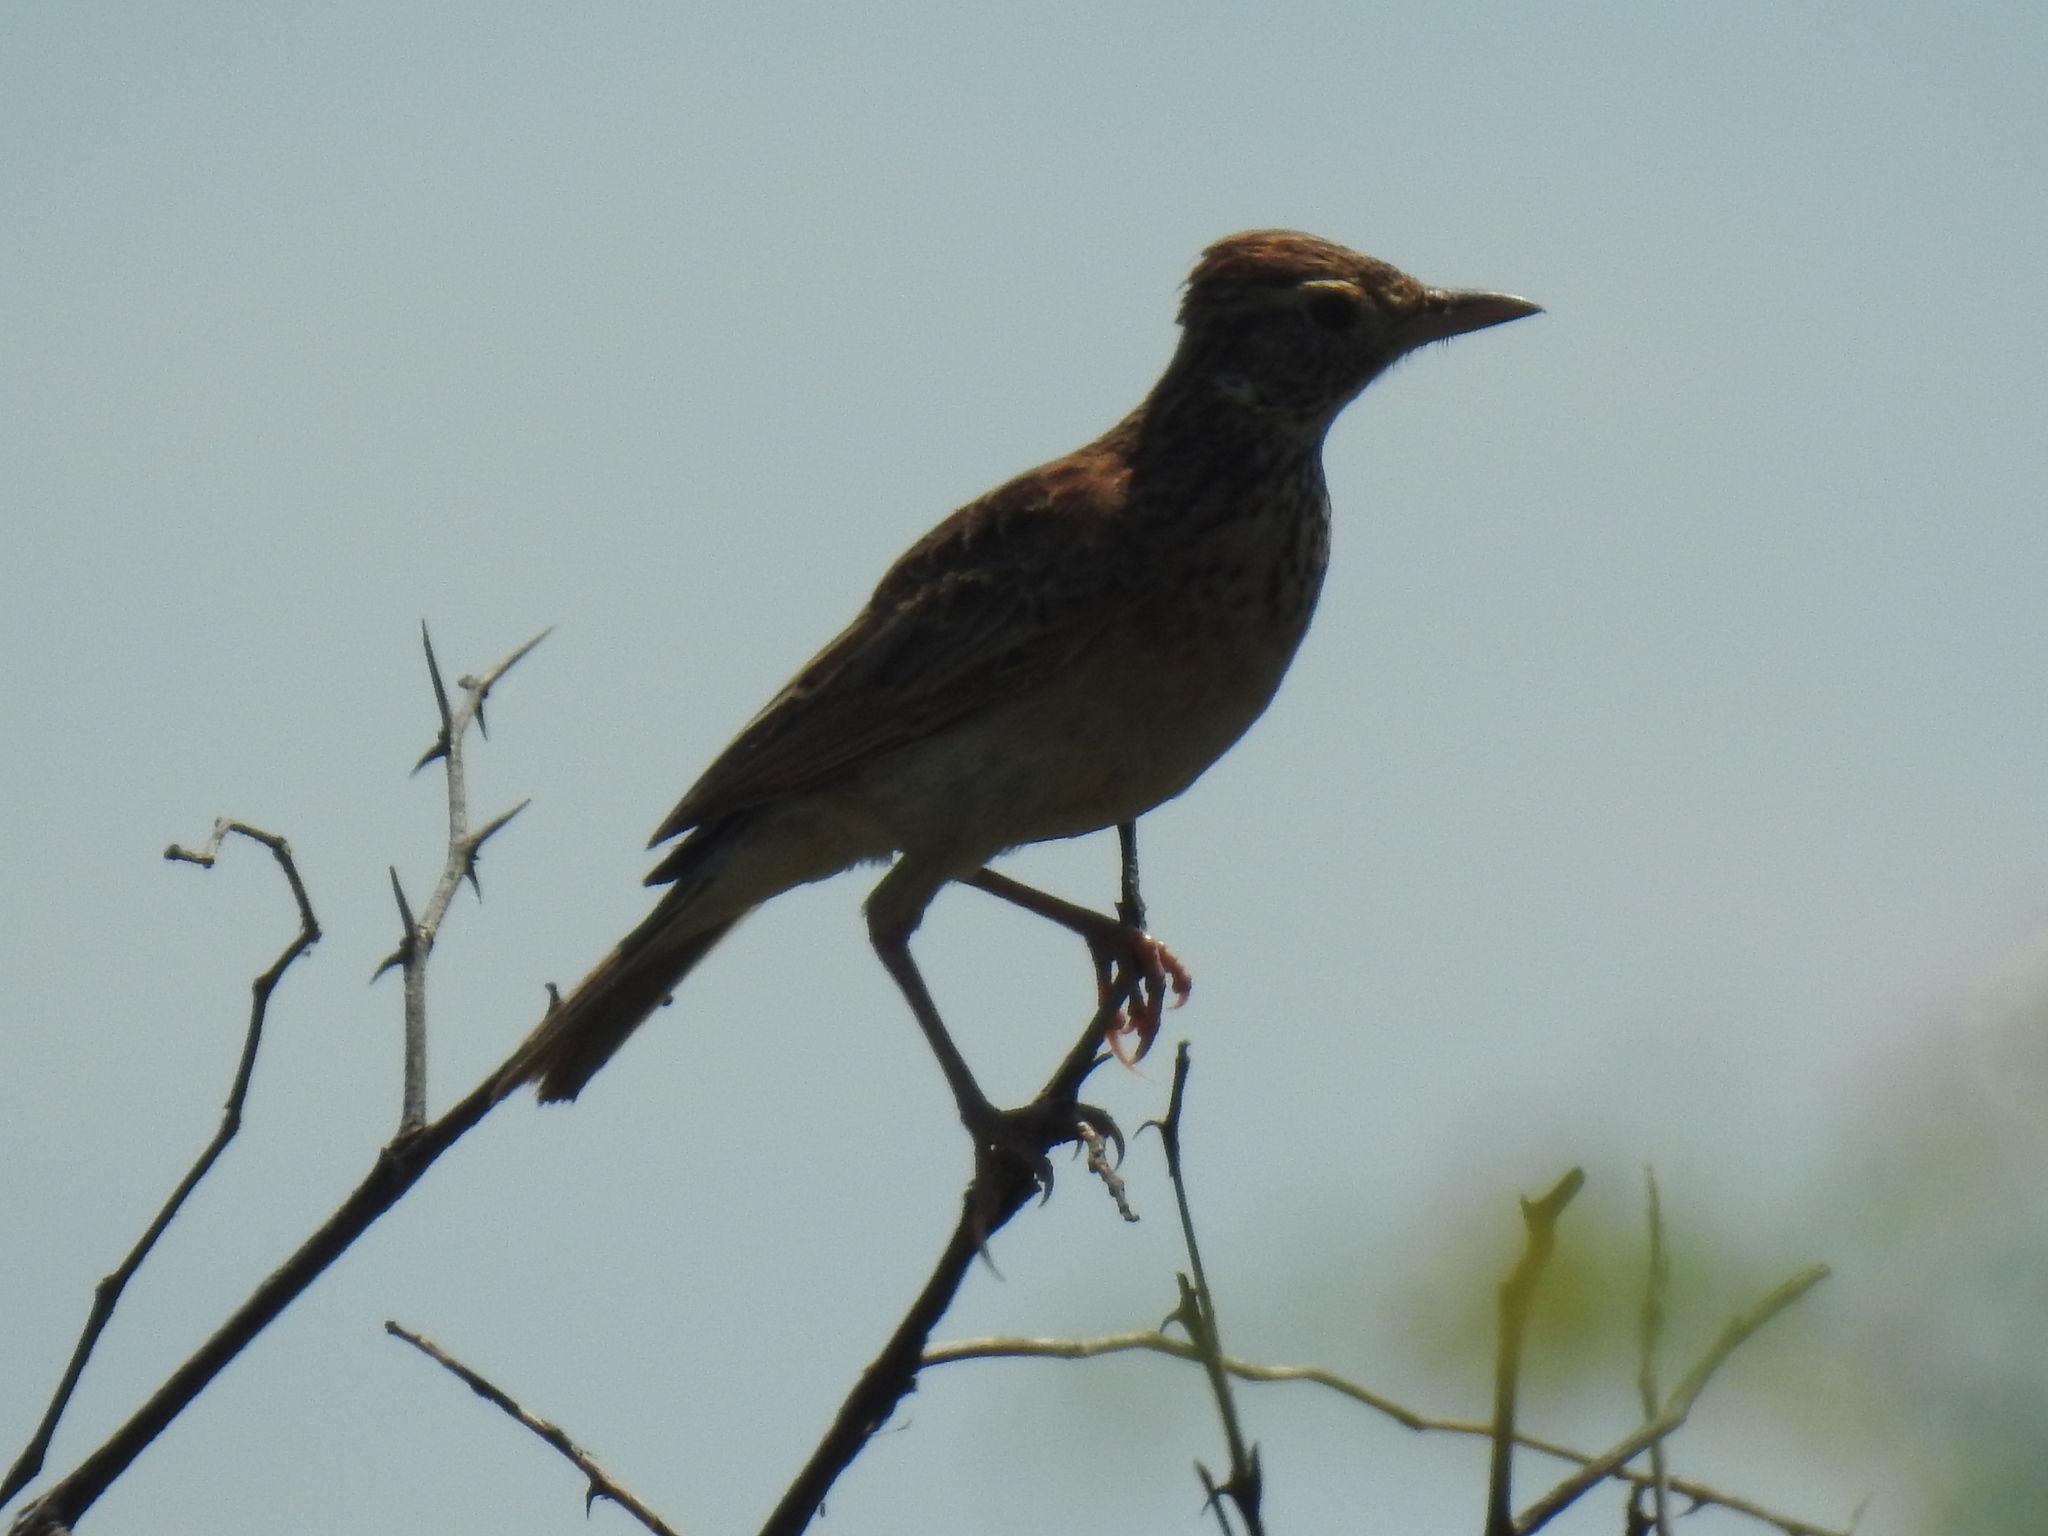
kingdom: Animalia
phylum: Chordata
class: Aves
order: Passeriformes
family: Alaudidae
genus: Mirafra
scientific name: Mirafra africana
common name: Rufous-naped lark
